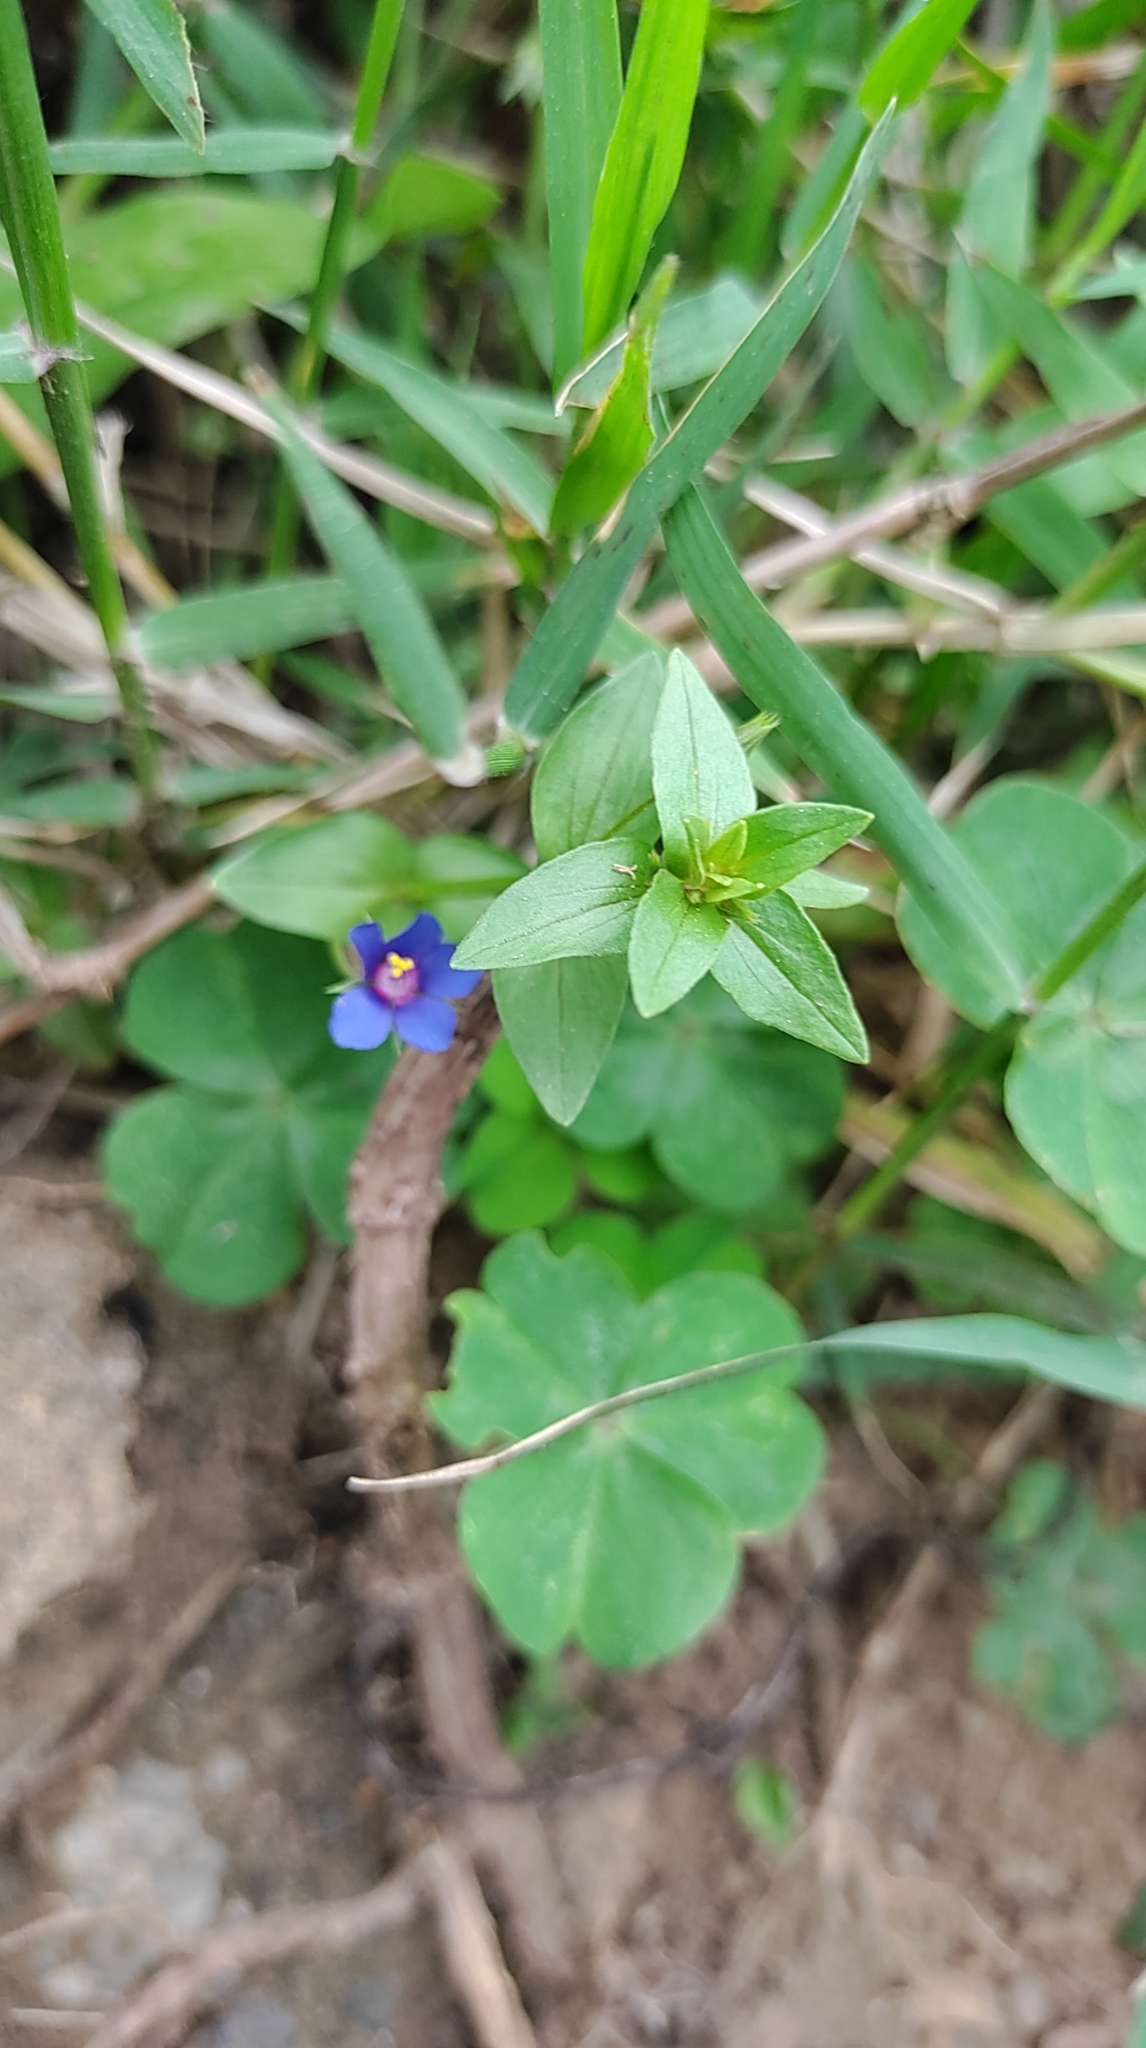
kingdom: Plantae
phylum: Tracheophyta
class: Magnoliopsida
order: Ericales
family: Primulaceae
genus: Lysimachia
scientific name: Lysimachia loeflingii
